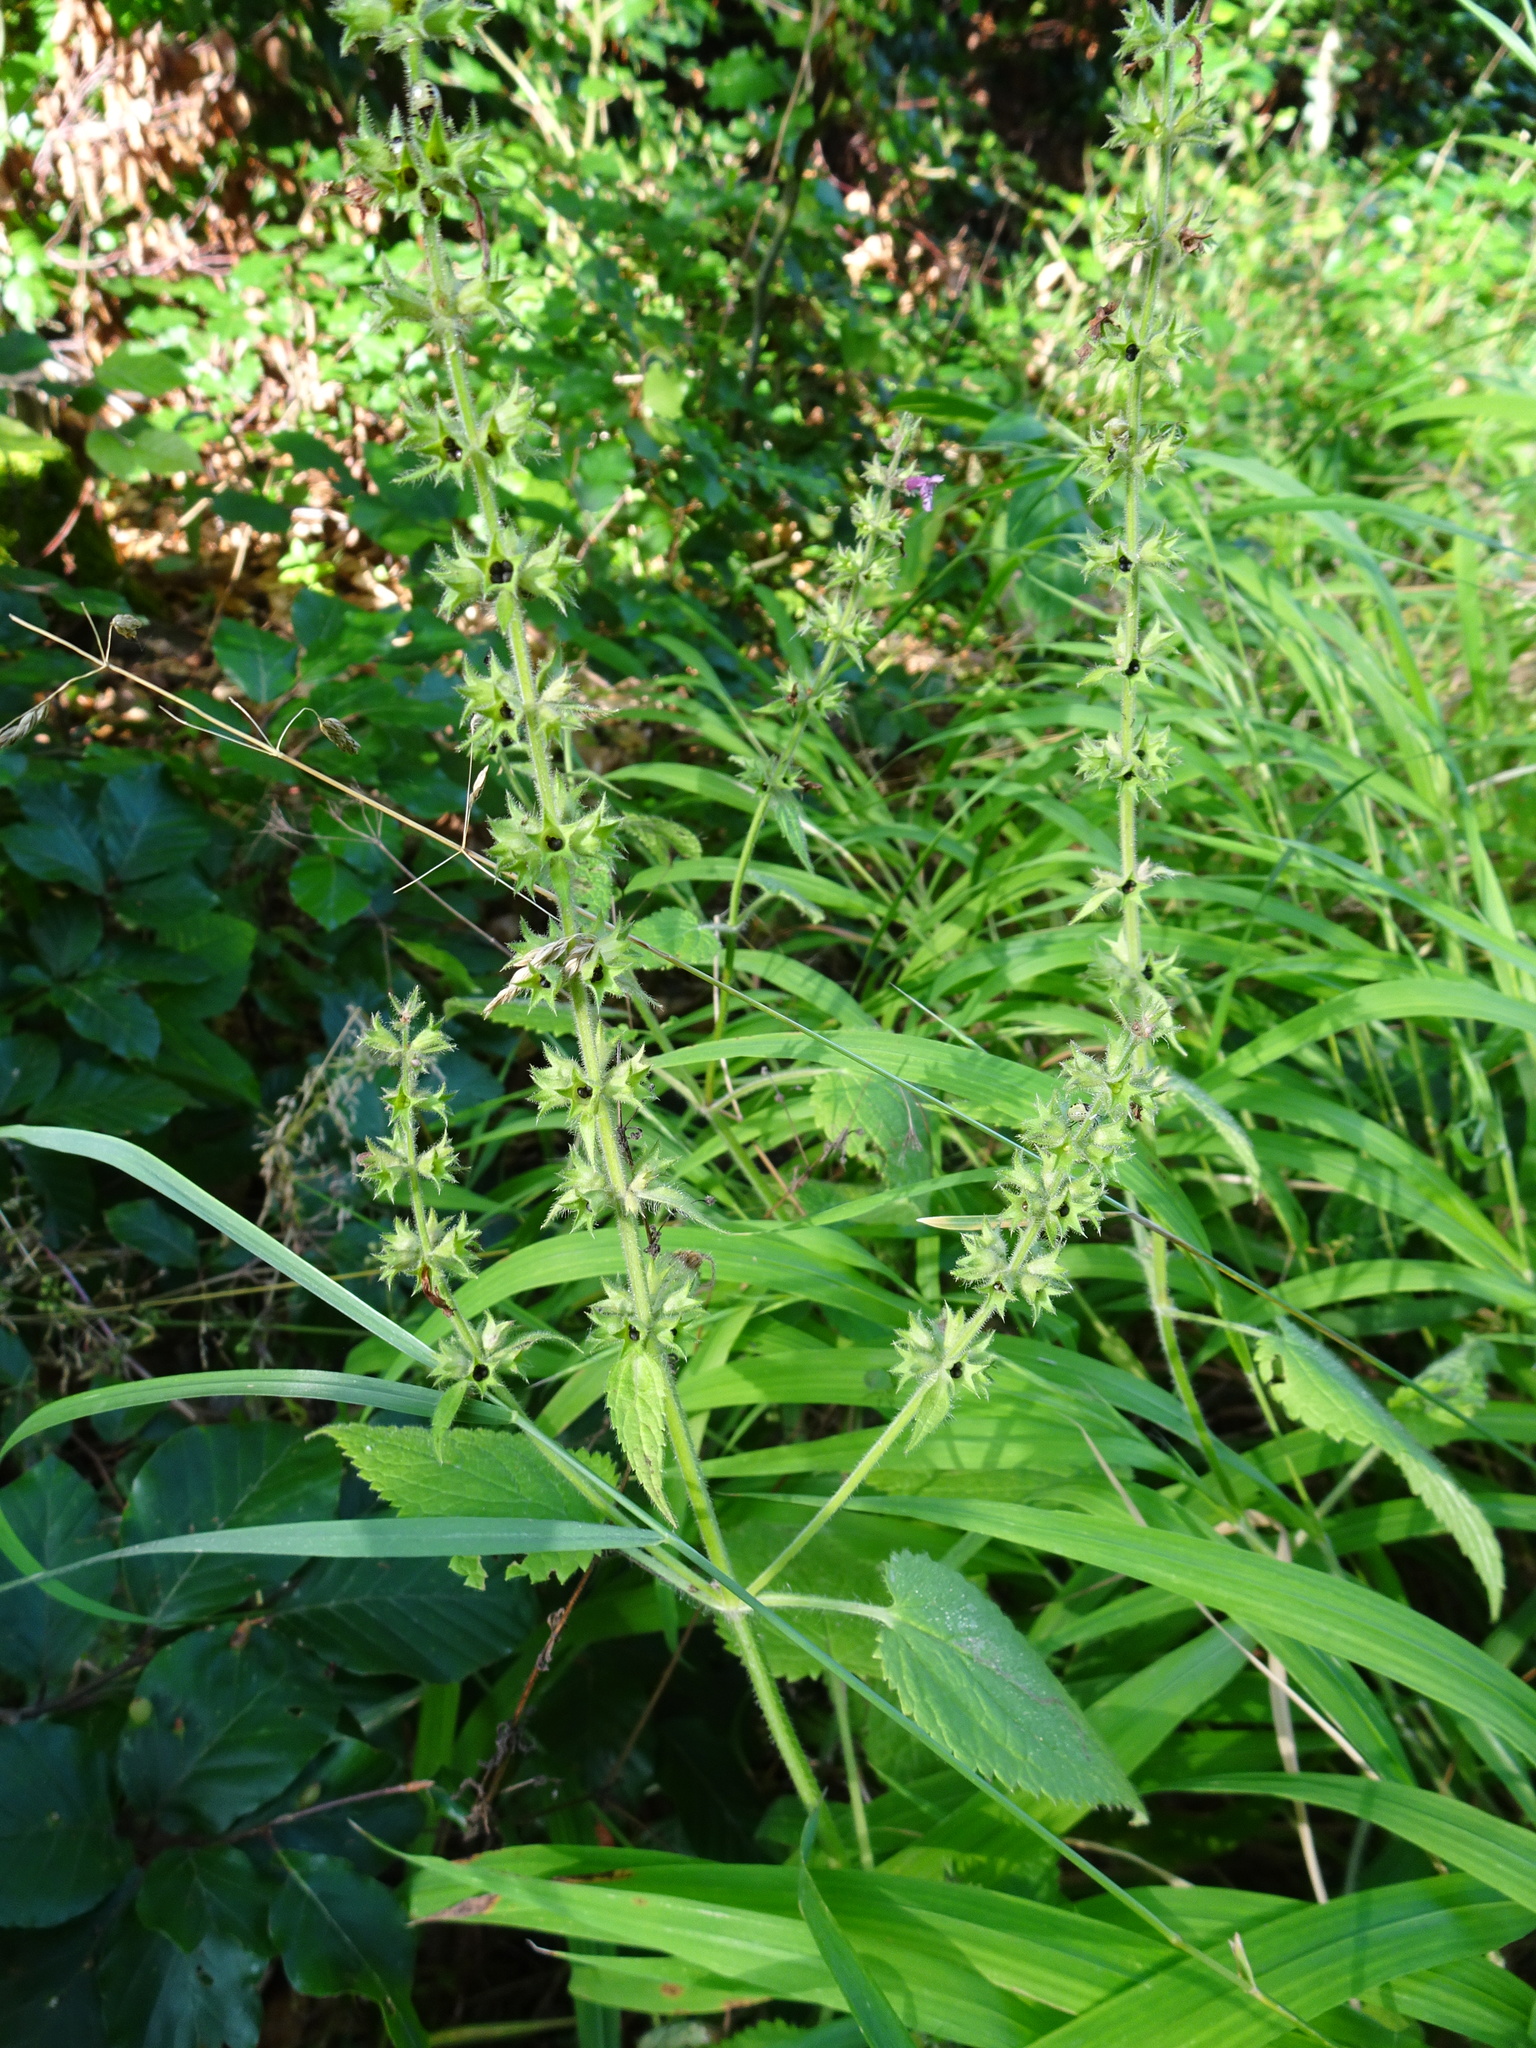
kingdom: Plantae
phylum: Tracheophyta
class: Magnoliopsida
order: Lamiales
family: Lamiaceae
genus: Stachys
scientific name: Stachys sylvatica
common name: Hedge woundwort
